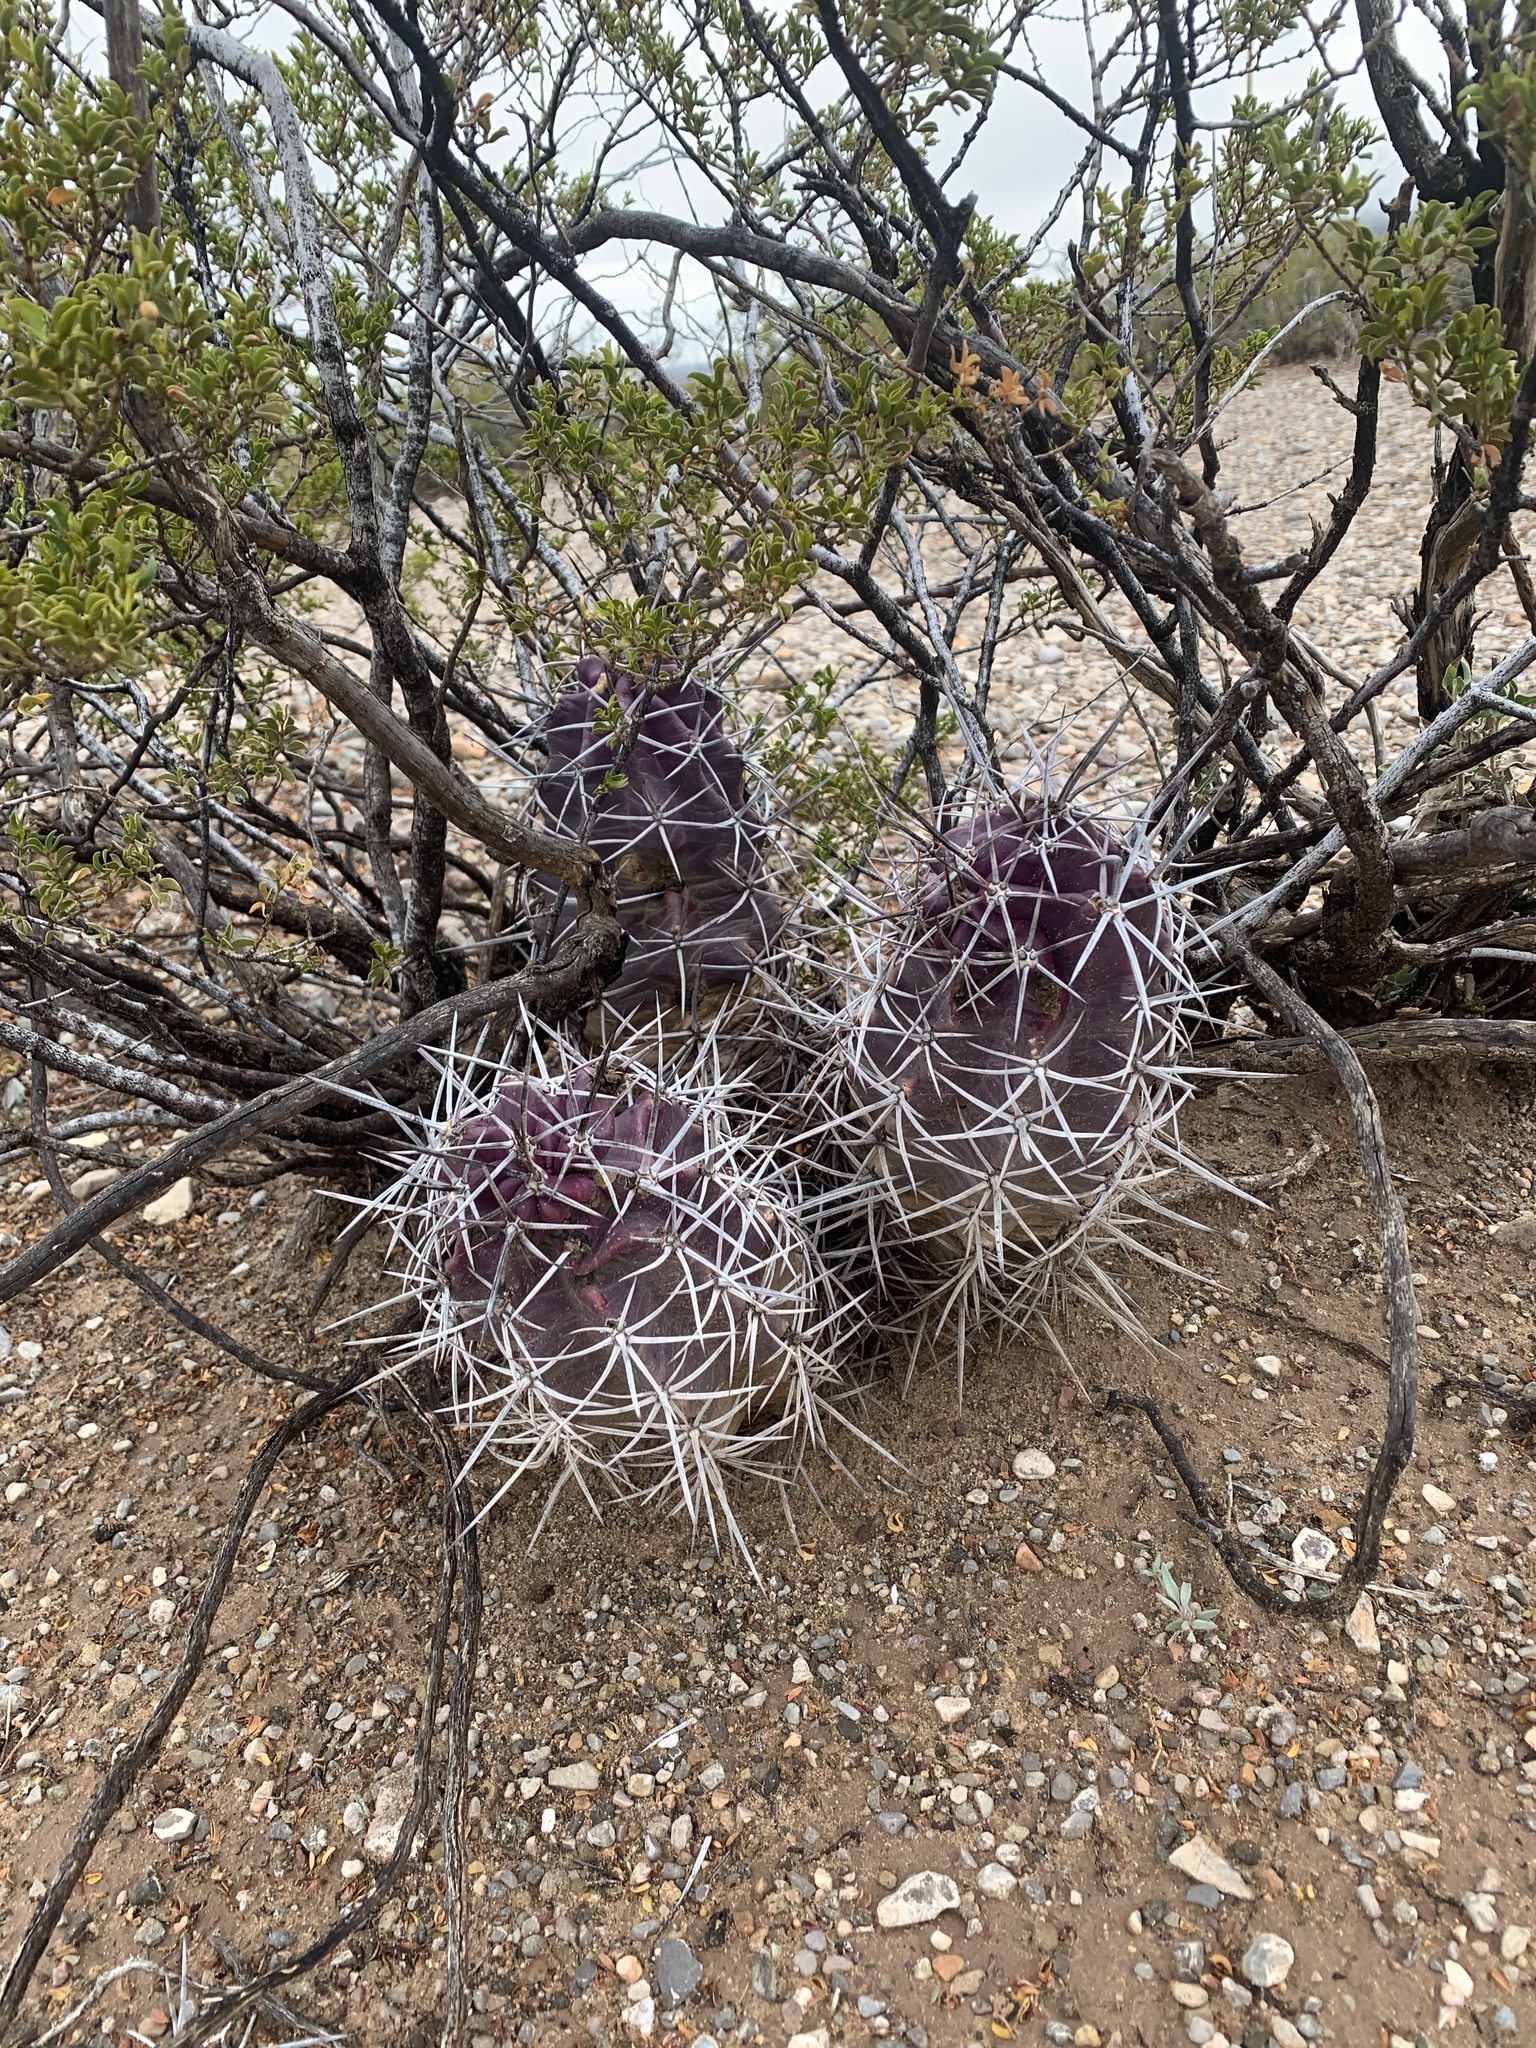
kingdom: Plantae
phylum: Tracheophyta
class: Magnoliopsida
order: Caryophyllales
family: Cactaceae
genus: Echinocereus
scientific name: Echinocereus triglochidiatus
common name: Claretcup hedgehog
